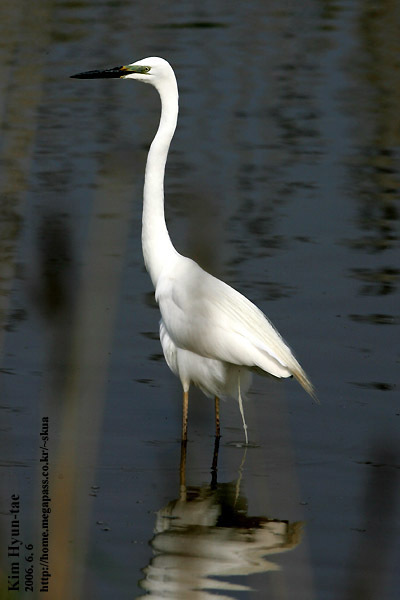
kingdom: Animalia
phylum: Chordata
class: Aves
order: Pelecaniformes
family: Ardeidae
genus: Ardea
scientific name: Ardea modesta
